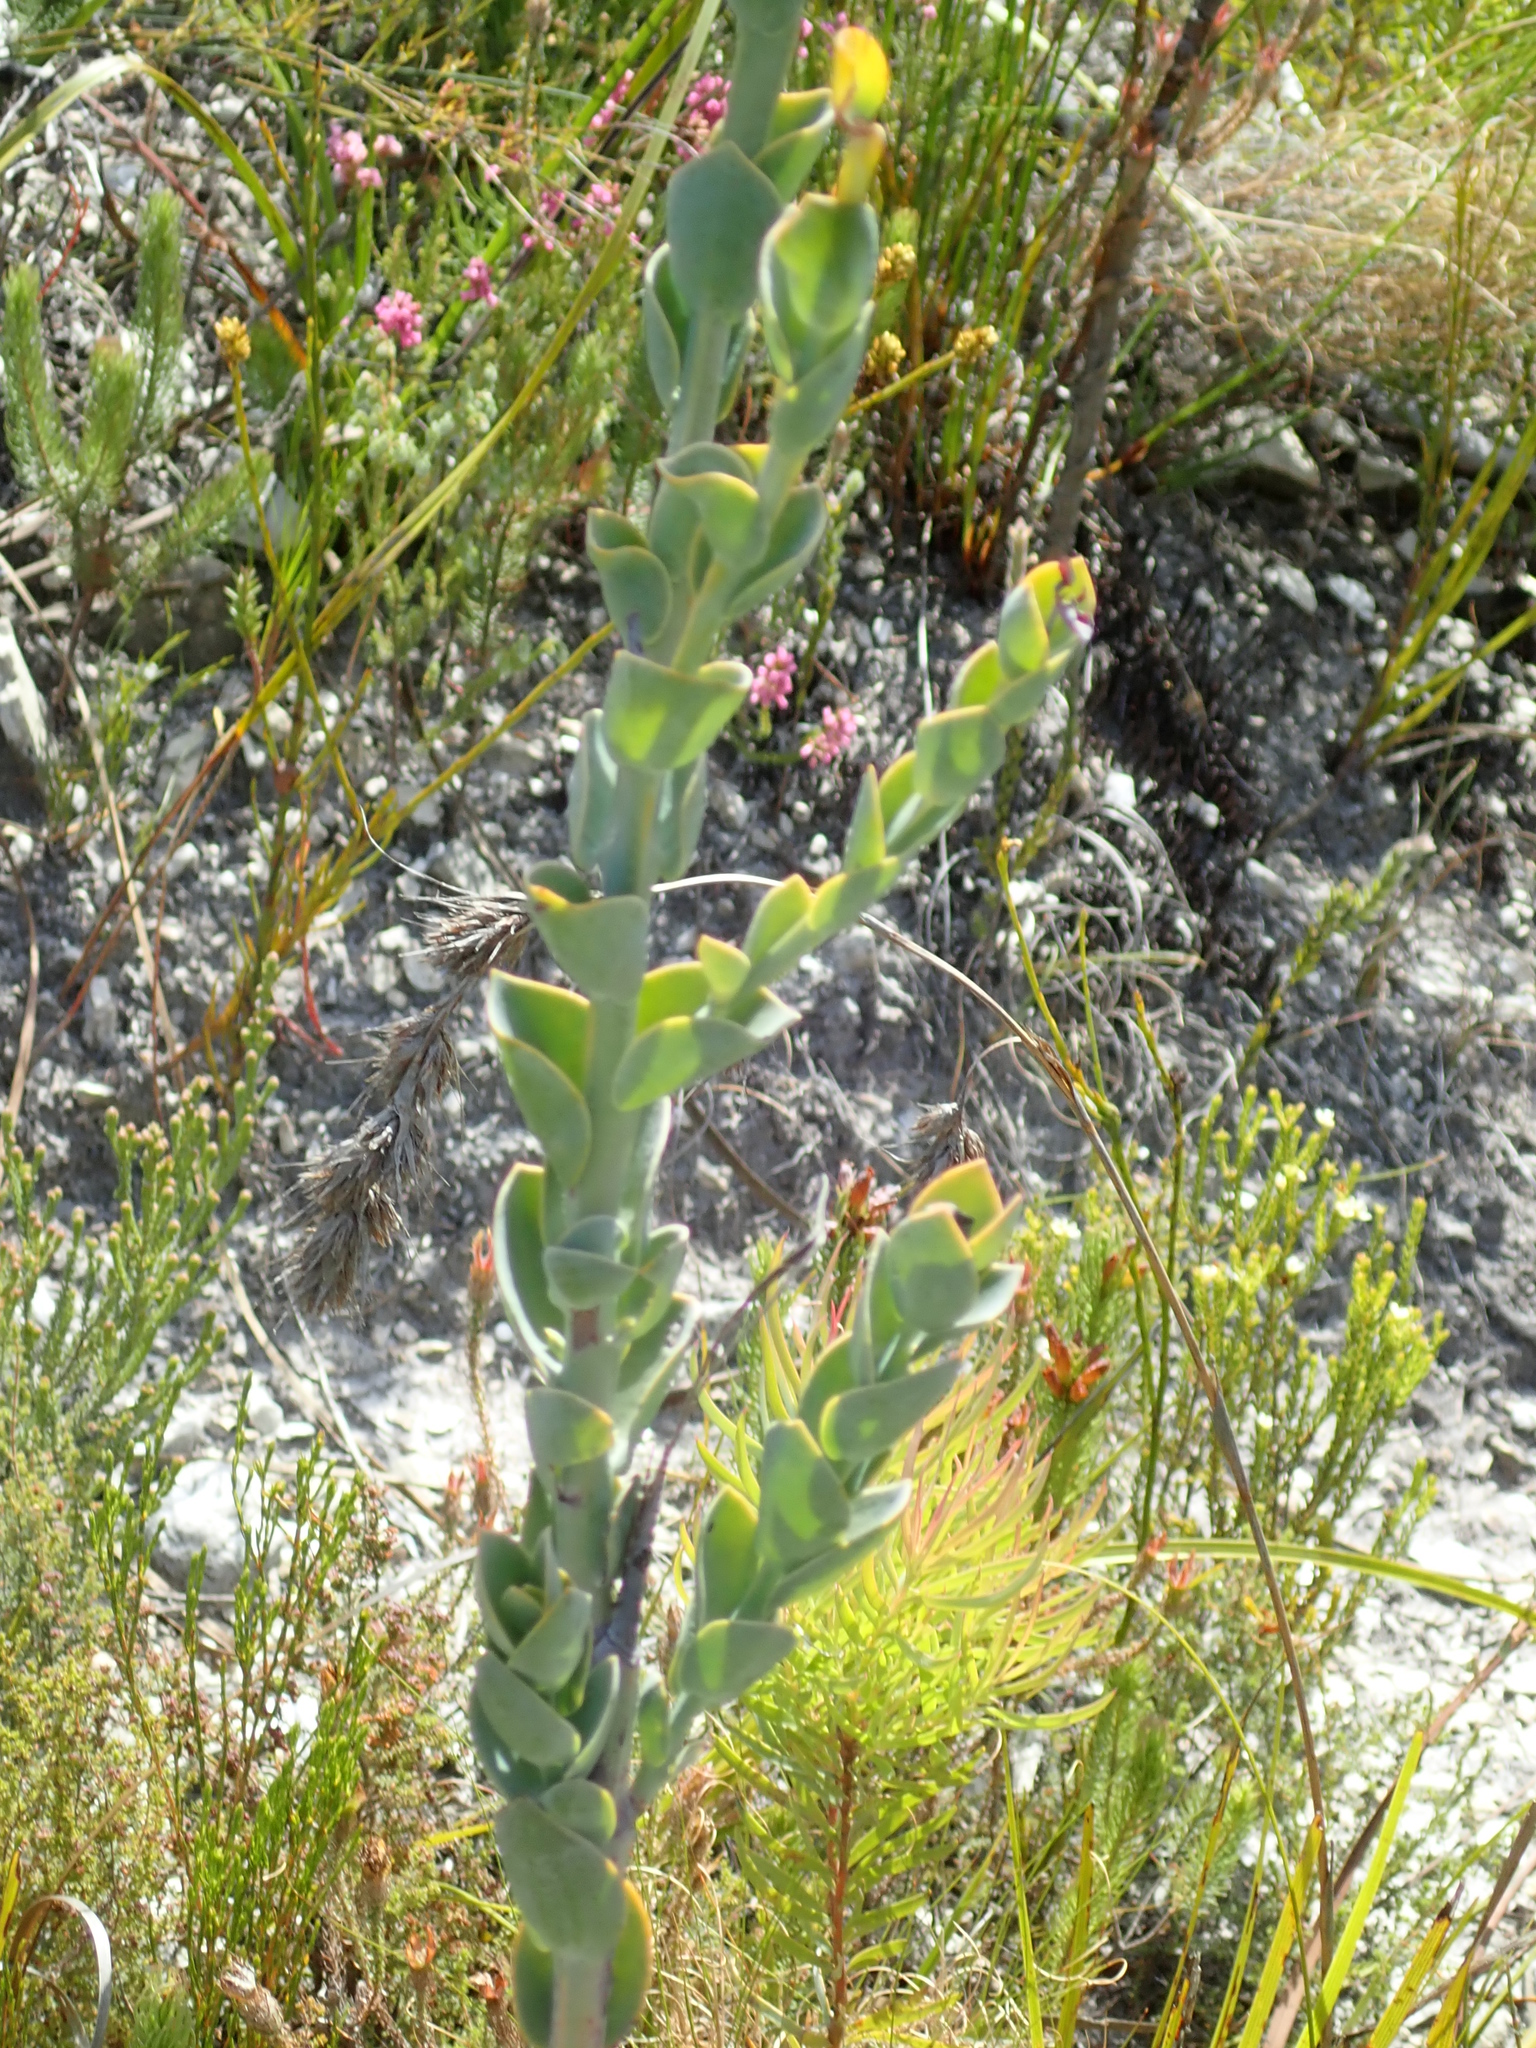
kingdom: Plantae
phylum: Tracheophyta
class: Magnoliopsida
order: Santalales
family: Thesiaceae
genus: Thesium
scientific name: Thesium euphorbioides
